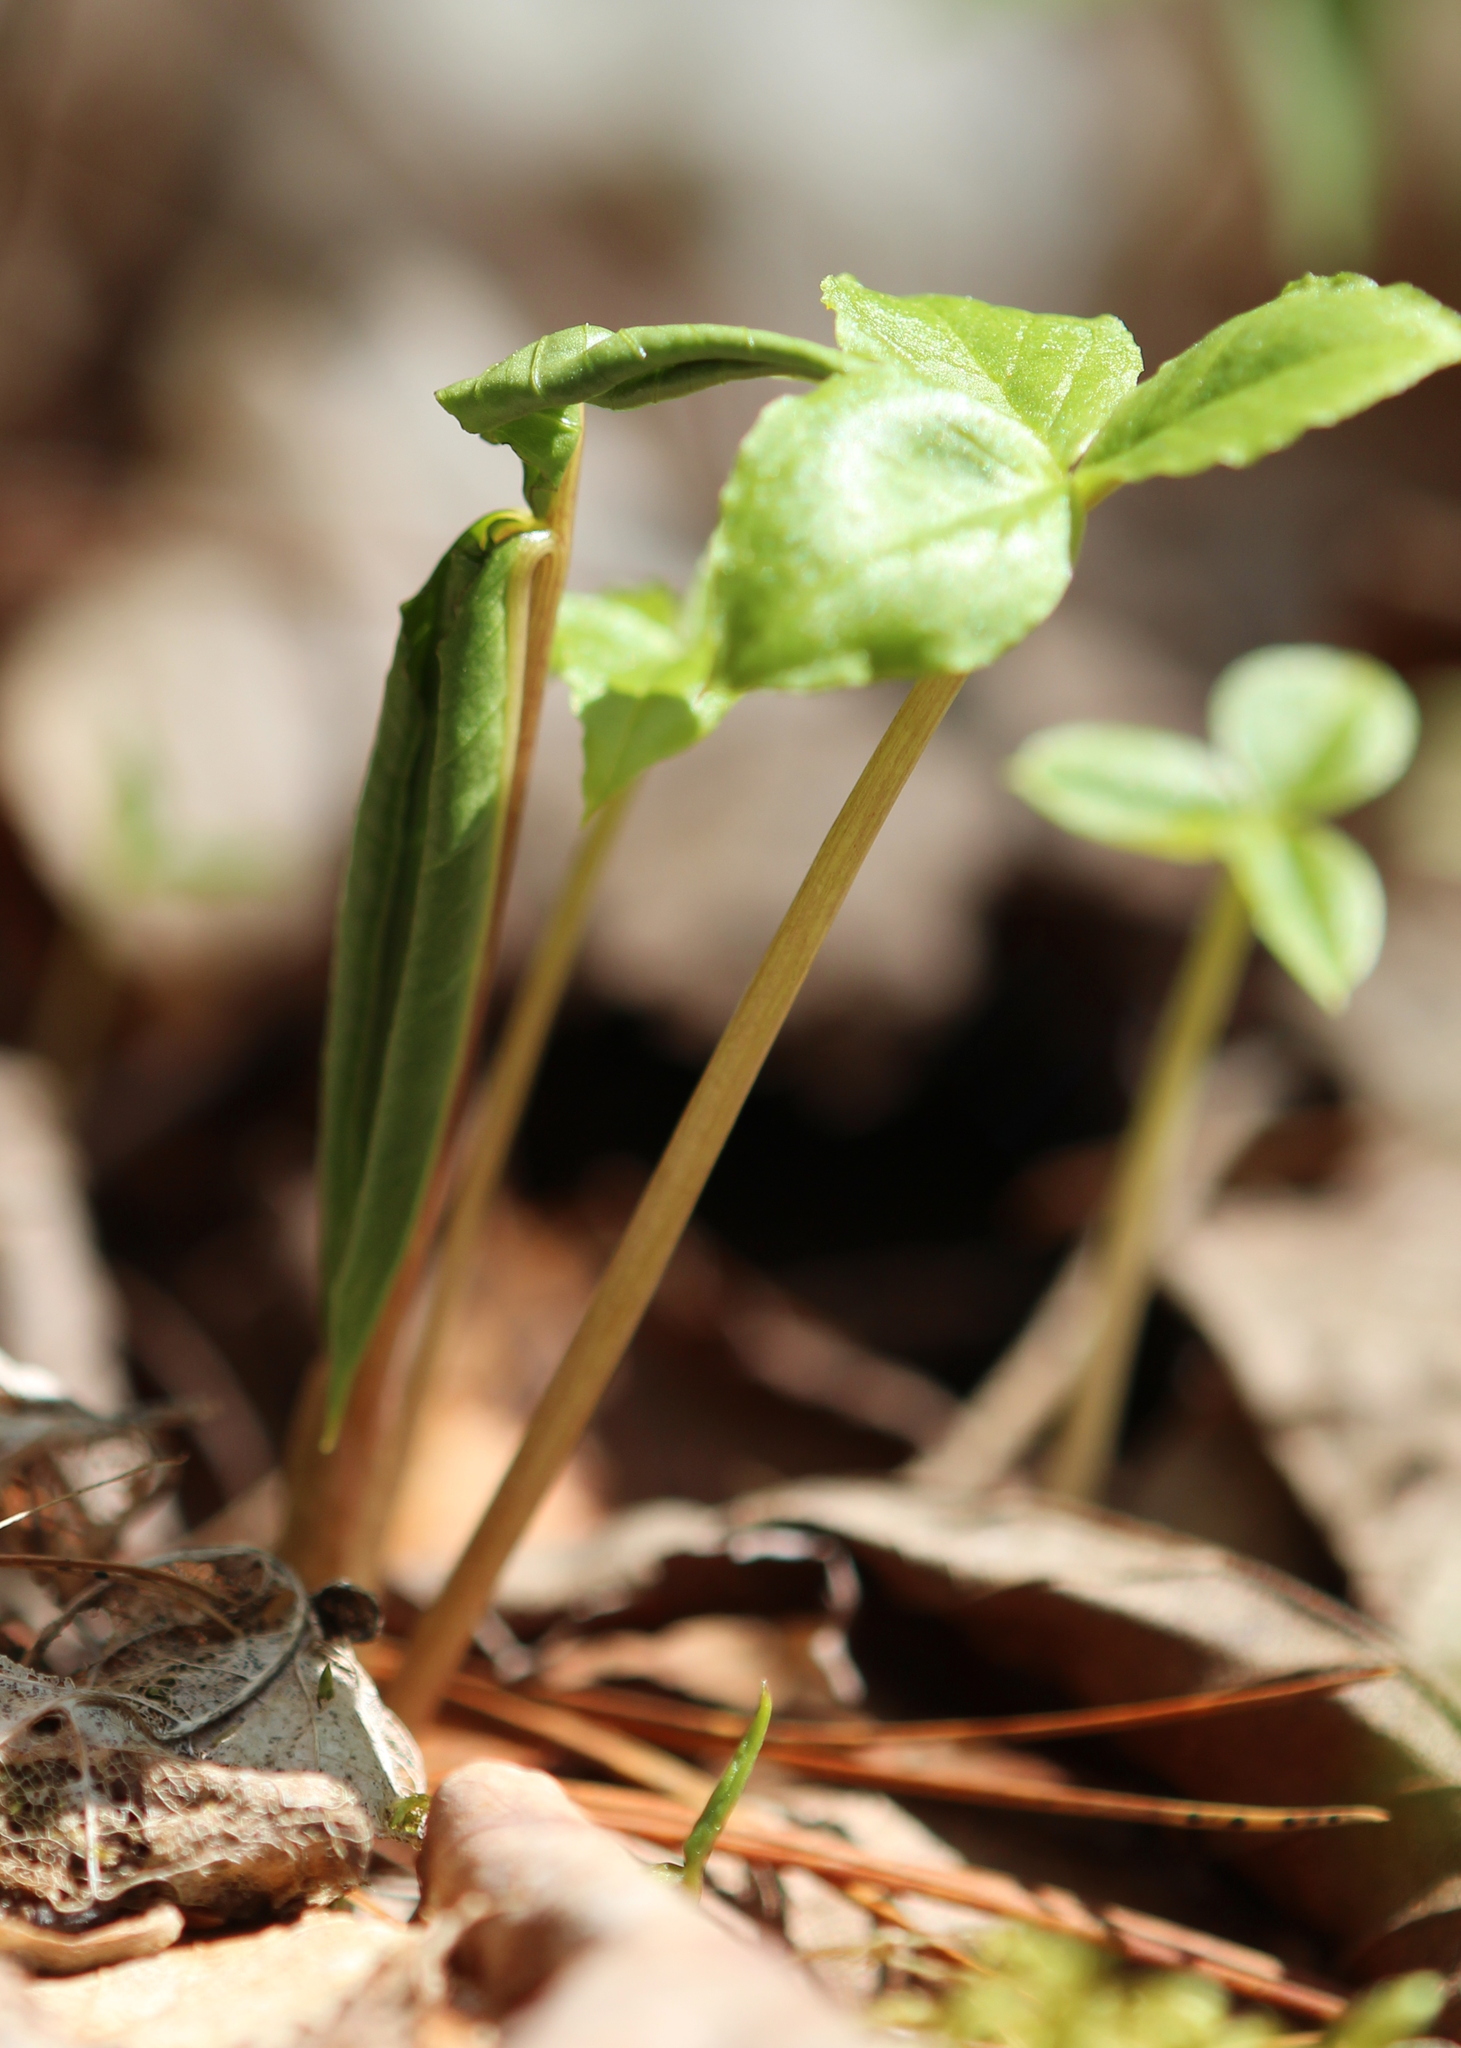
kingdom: Plantae
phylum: Tracheophyta
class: Liliopsida
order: Alismatales
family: Araceae
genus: Arisaema
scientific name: Arisaema triphyllum
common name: Jack-in-the-pulpit
